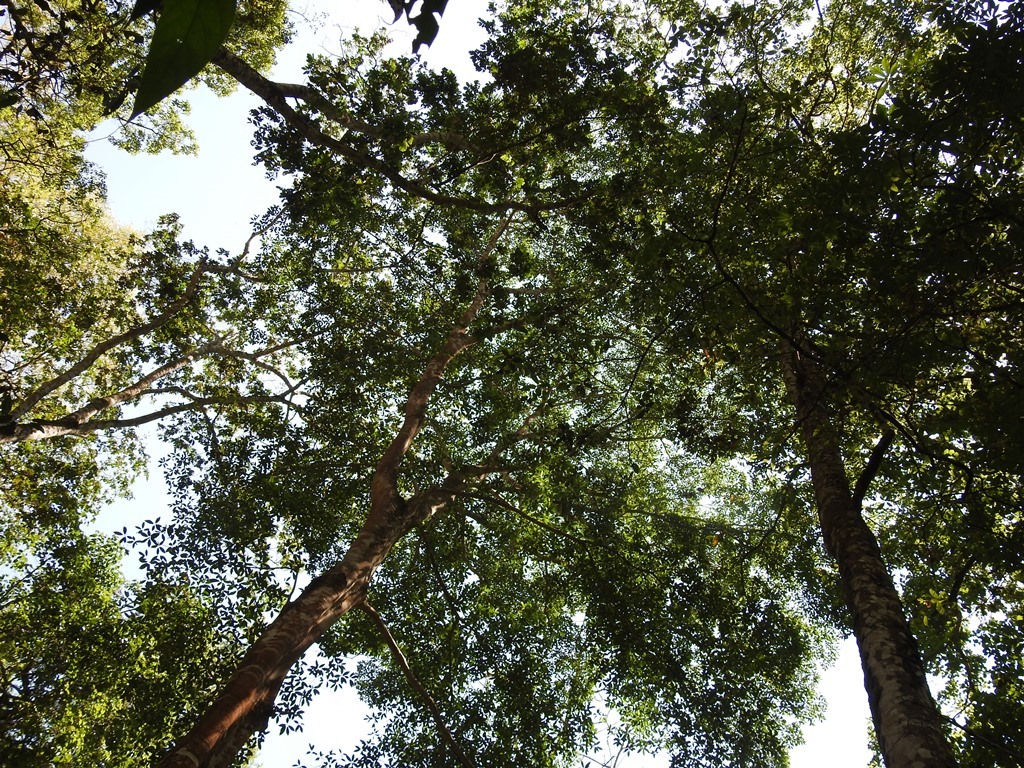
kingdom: Plantae
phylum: Tracheophyta
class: Magnoliopsida
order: Myrtales
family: Combretaceae
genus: Terminalia
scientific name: Terminalia oblonga
